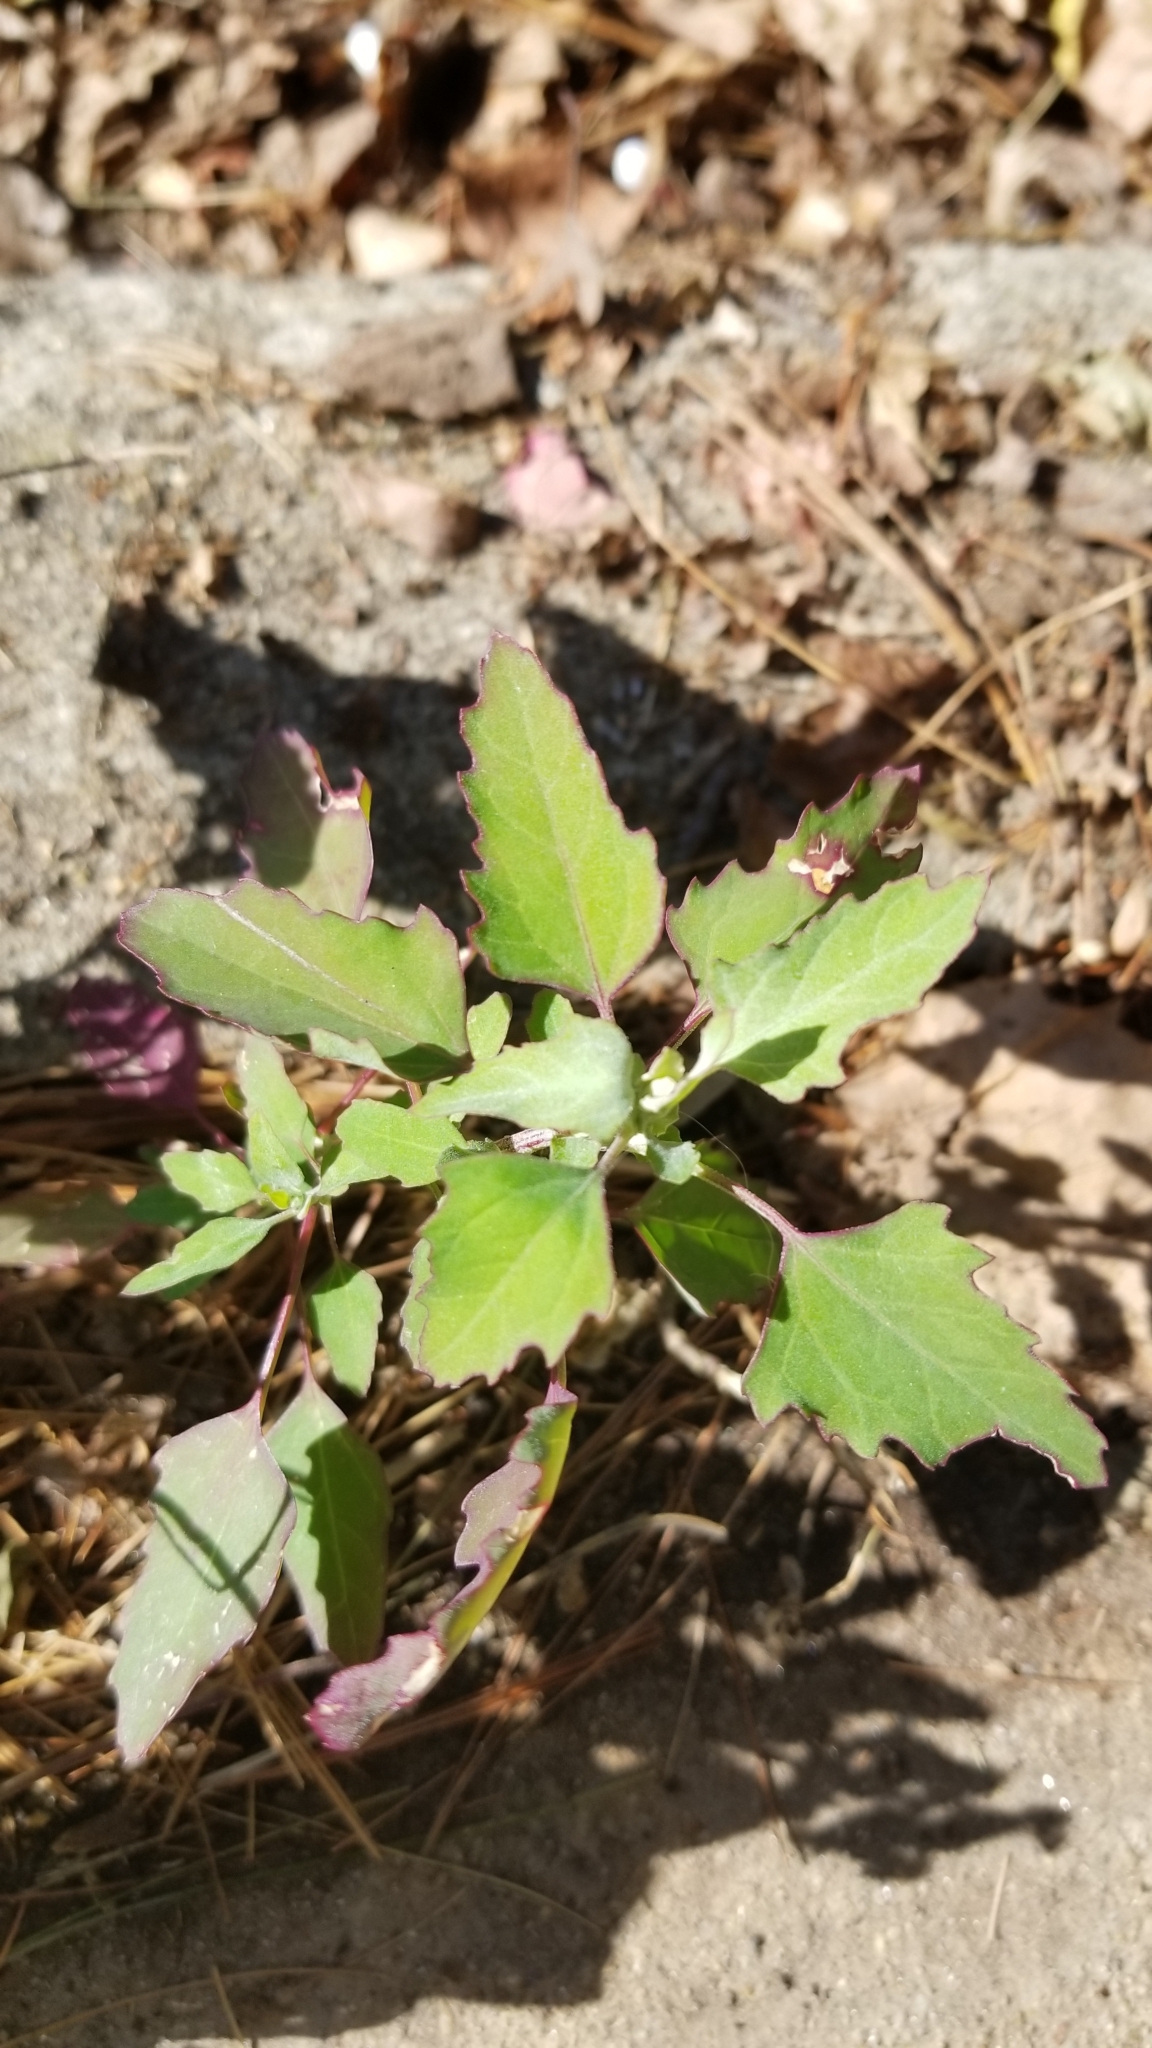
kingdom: Plantae
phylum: Tracheophyta
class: Magnoliopsida
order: Caryophyllales
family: Amaranthaceae
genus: Chenopodium
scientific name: Chenopodium album
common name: Fat-hen
